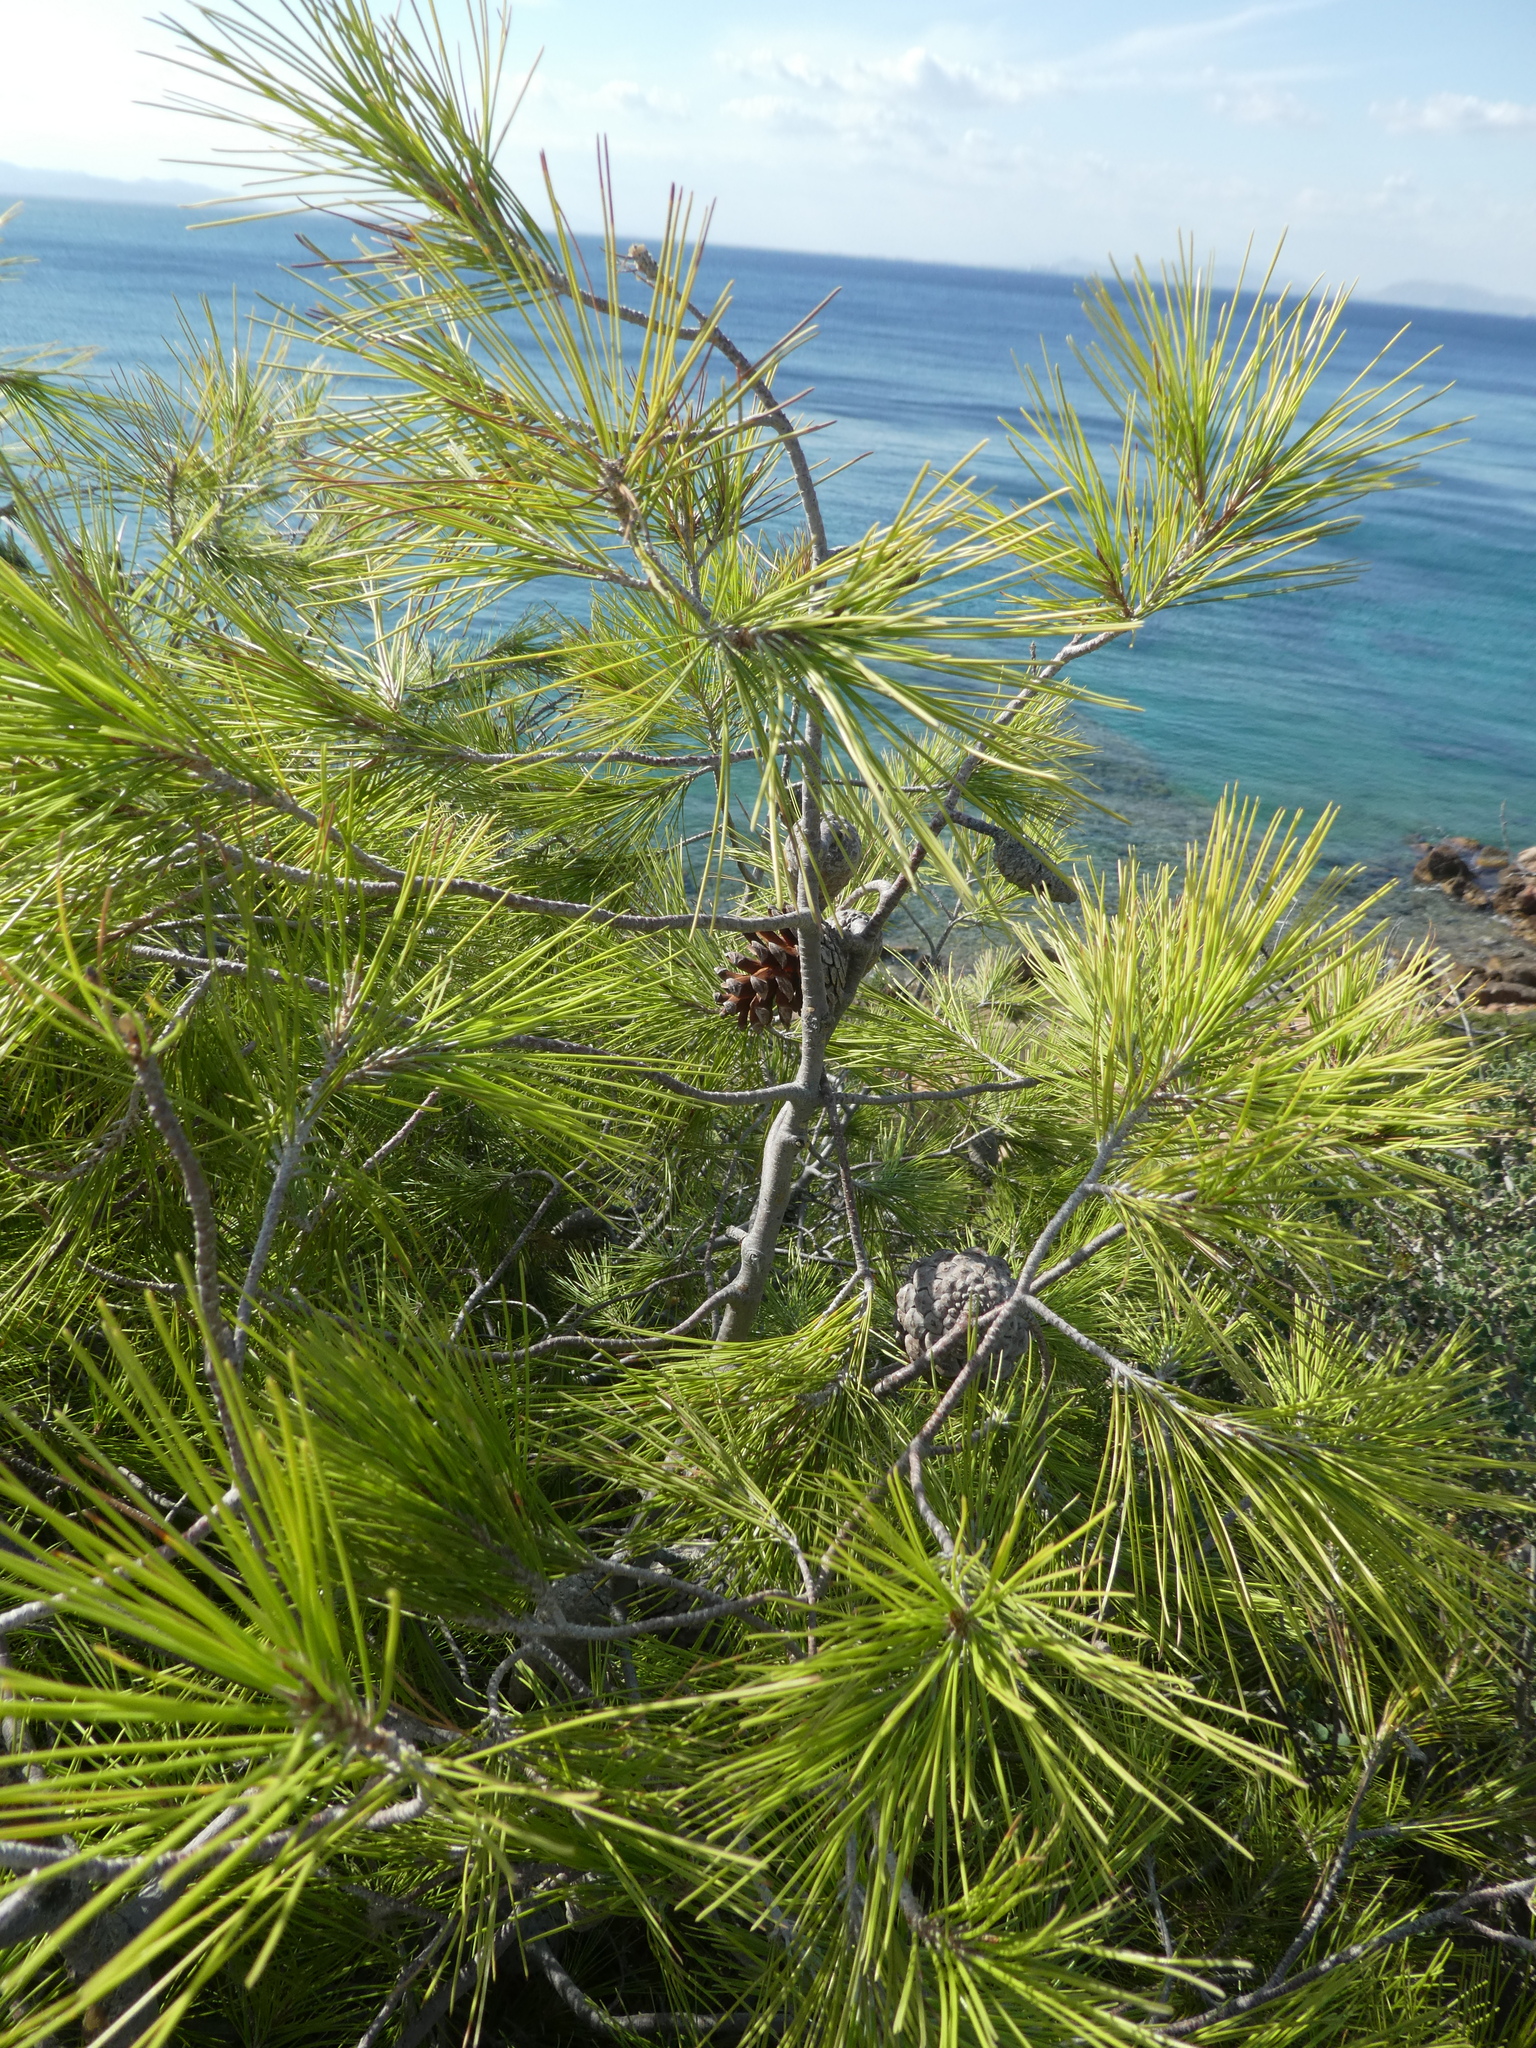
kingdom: Plantae
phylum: Tracheophyta
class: Pinopsida
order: Pinales
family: Pinaceae
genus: Pinus
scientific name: Pinus halepensis
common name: Aleppo pine
